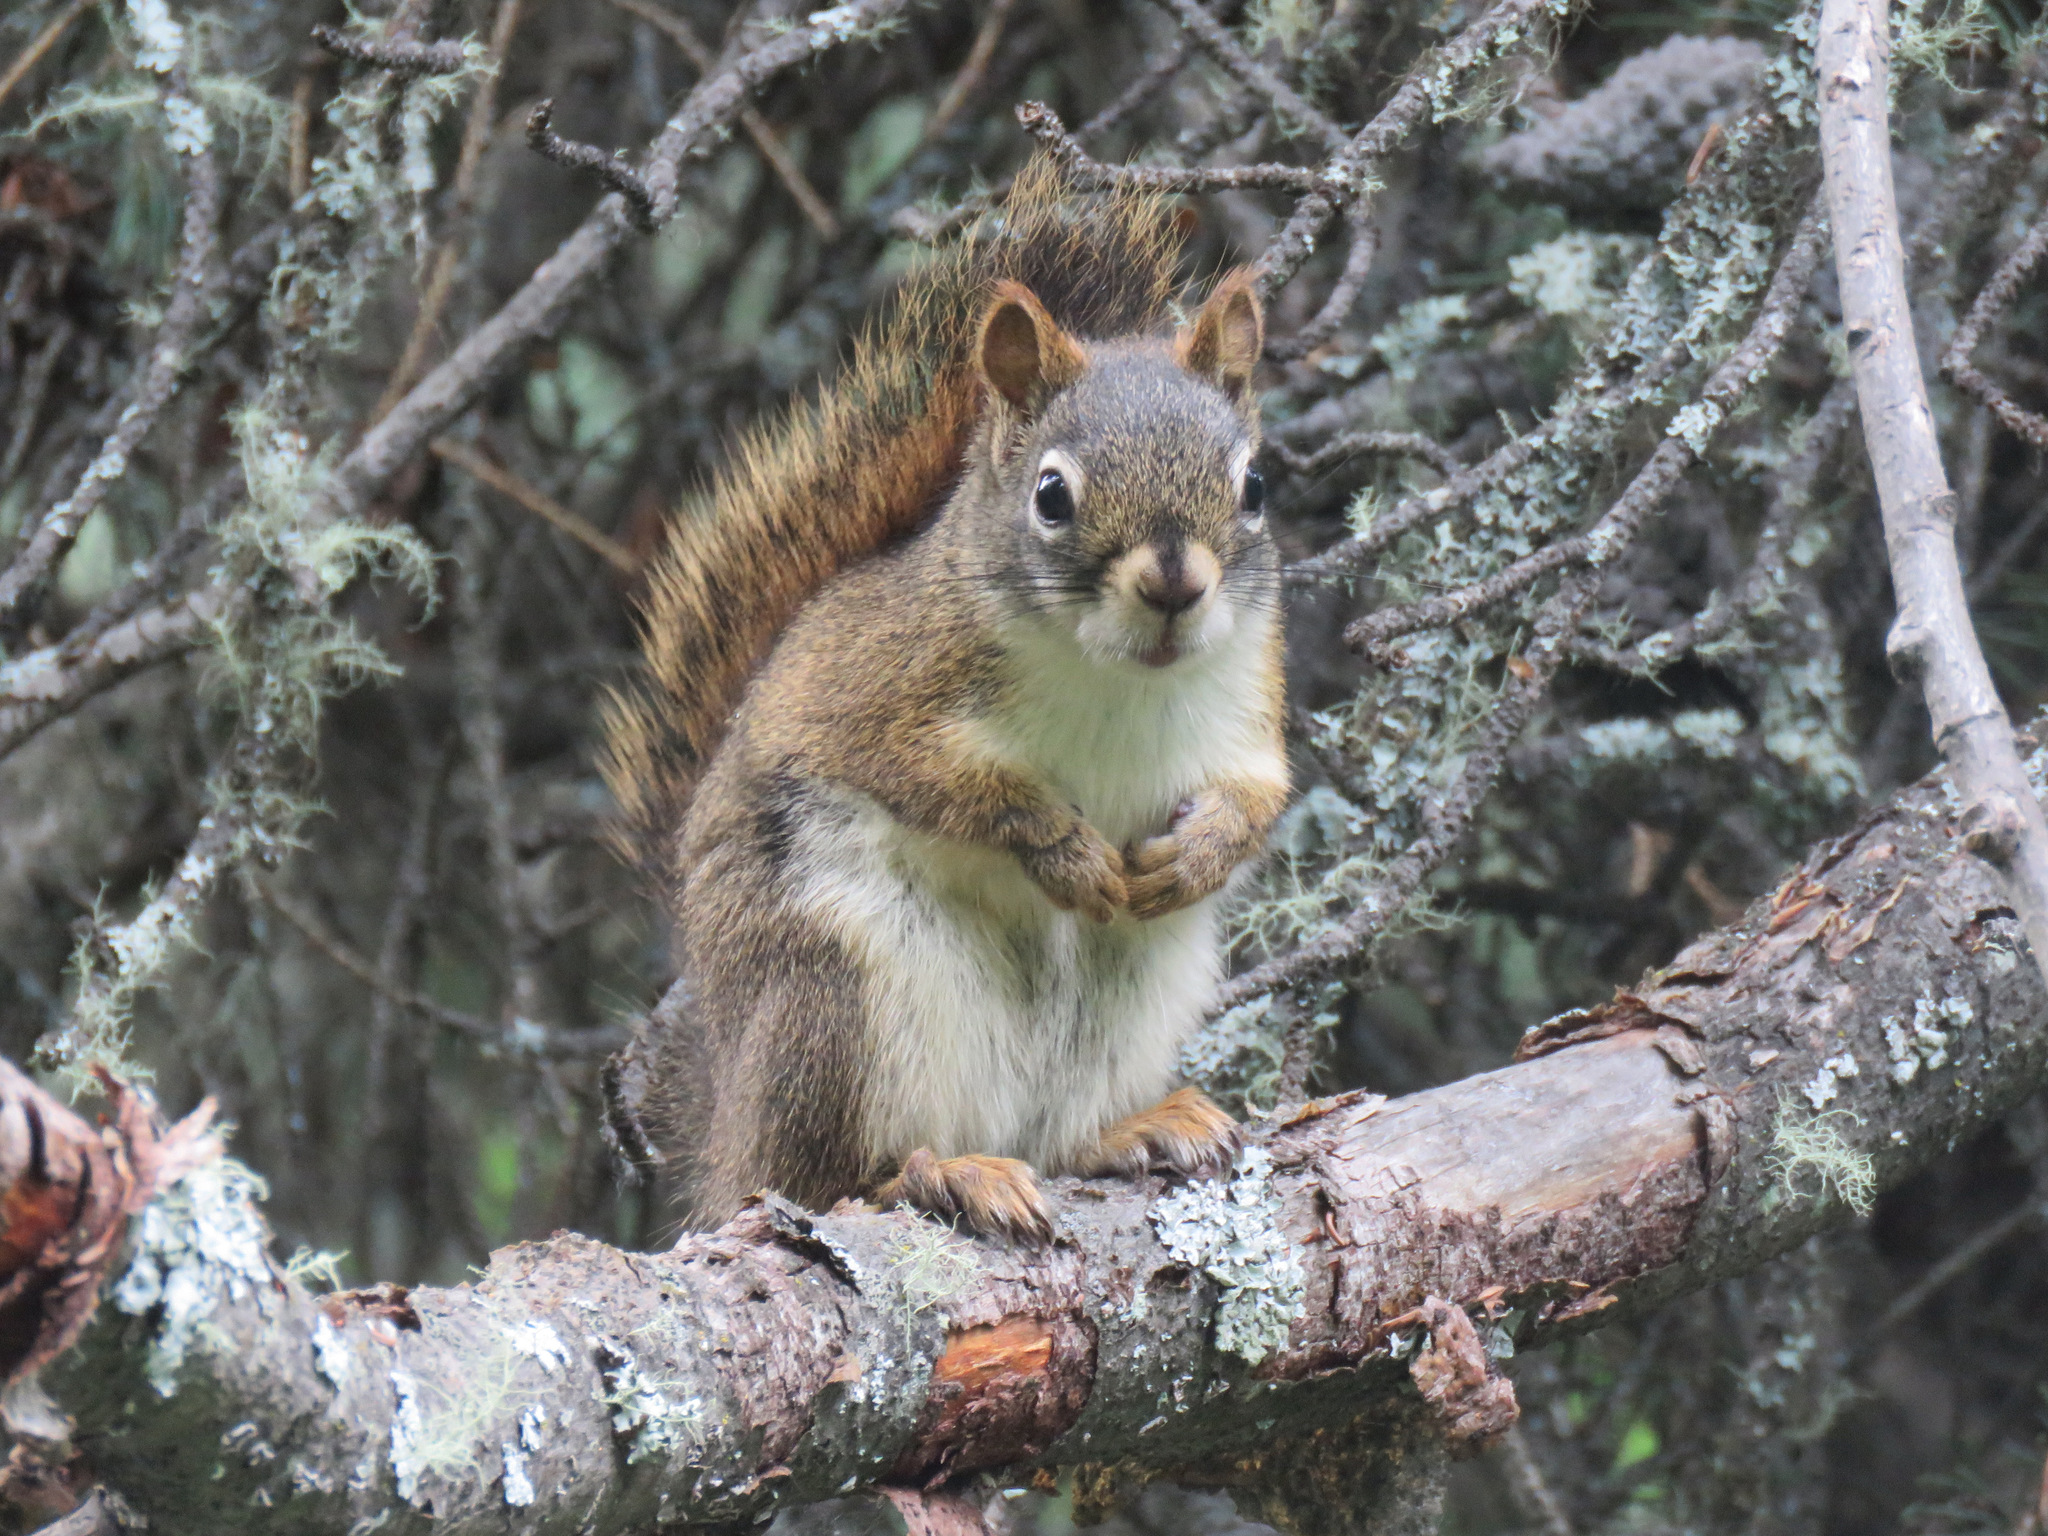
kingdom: Animalia
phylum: Chordata
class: Mammalia
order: Rodentia
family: Sciuridae
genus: Tamiasciurus
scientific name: Tamiasciurus hudsonicus
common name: Red squirrel
